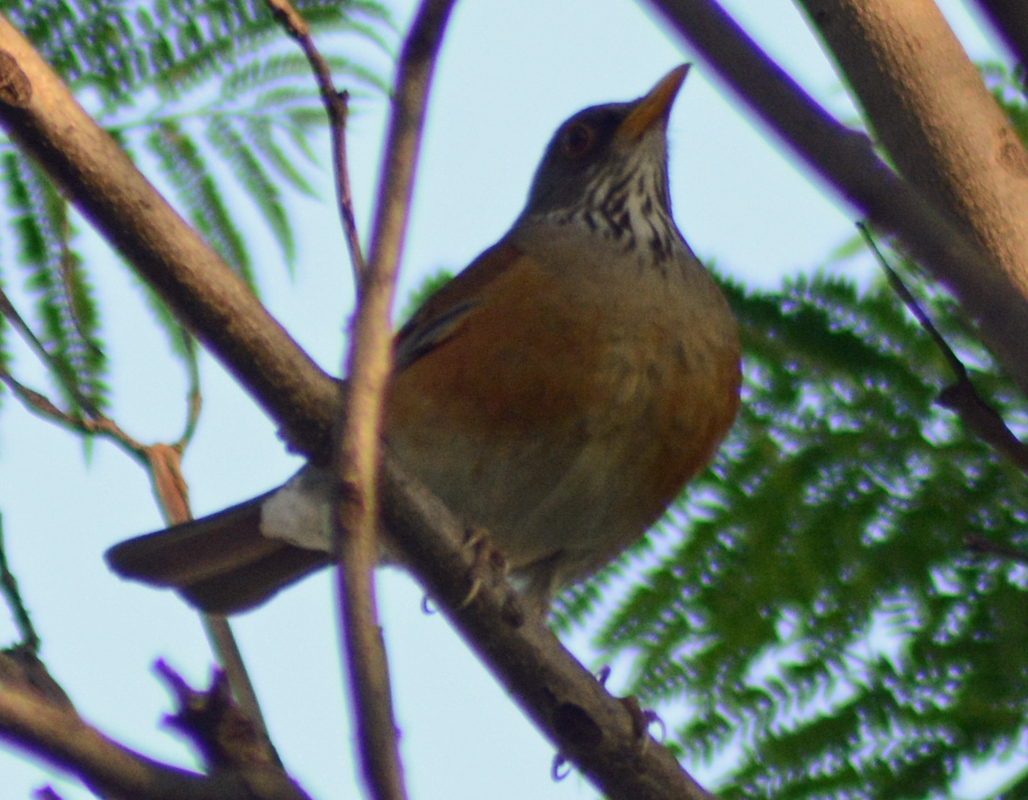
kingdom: Animalia
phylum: Chordata
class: Aves
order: Passeriformes
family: Turdidae
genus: Turdus
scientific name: Turdus rufopalliatus
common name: Rufous-backed robin
